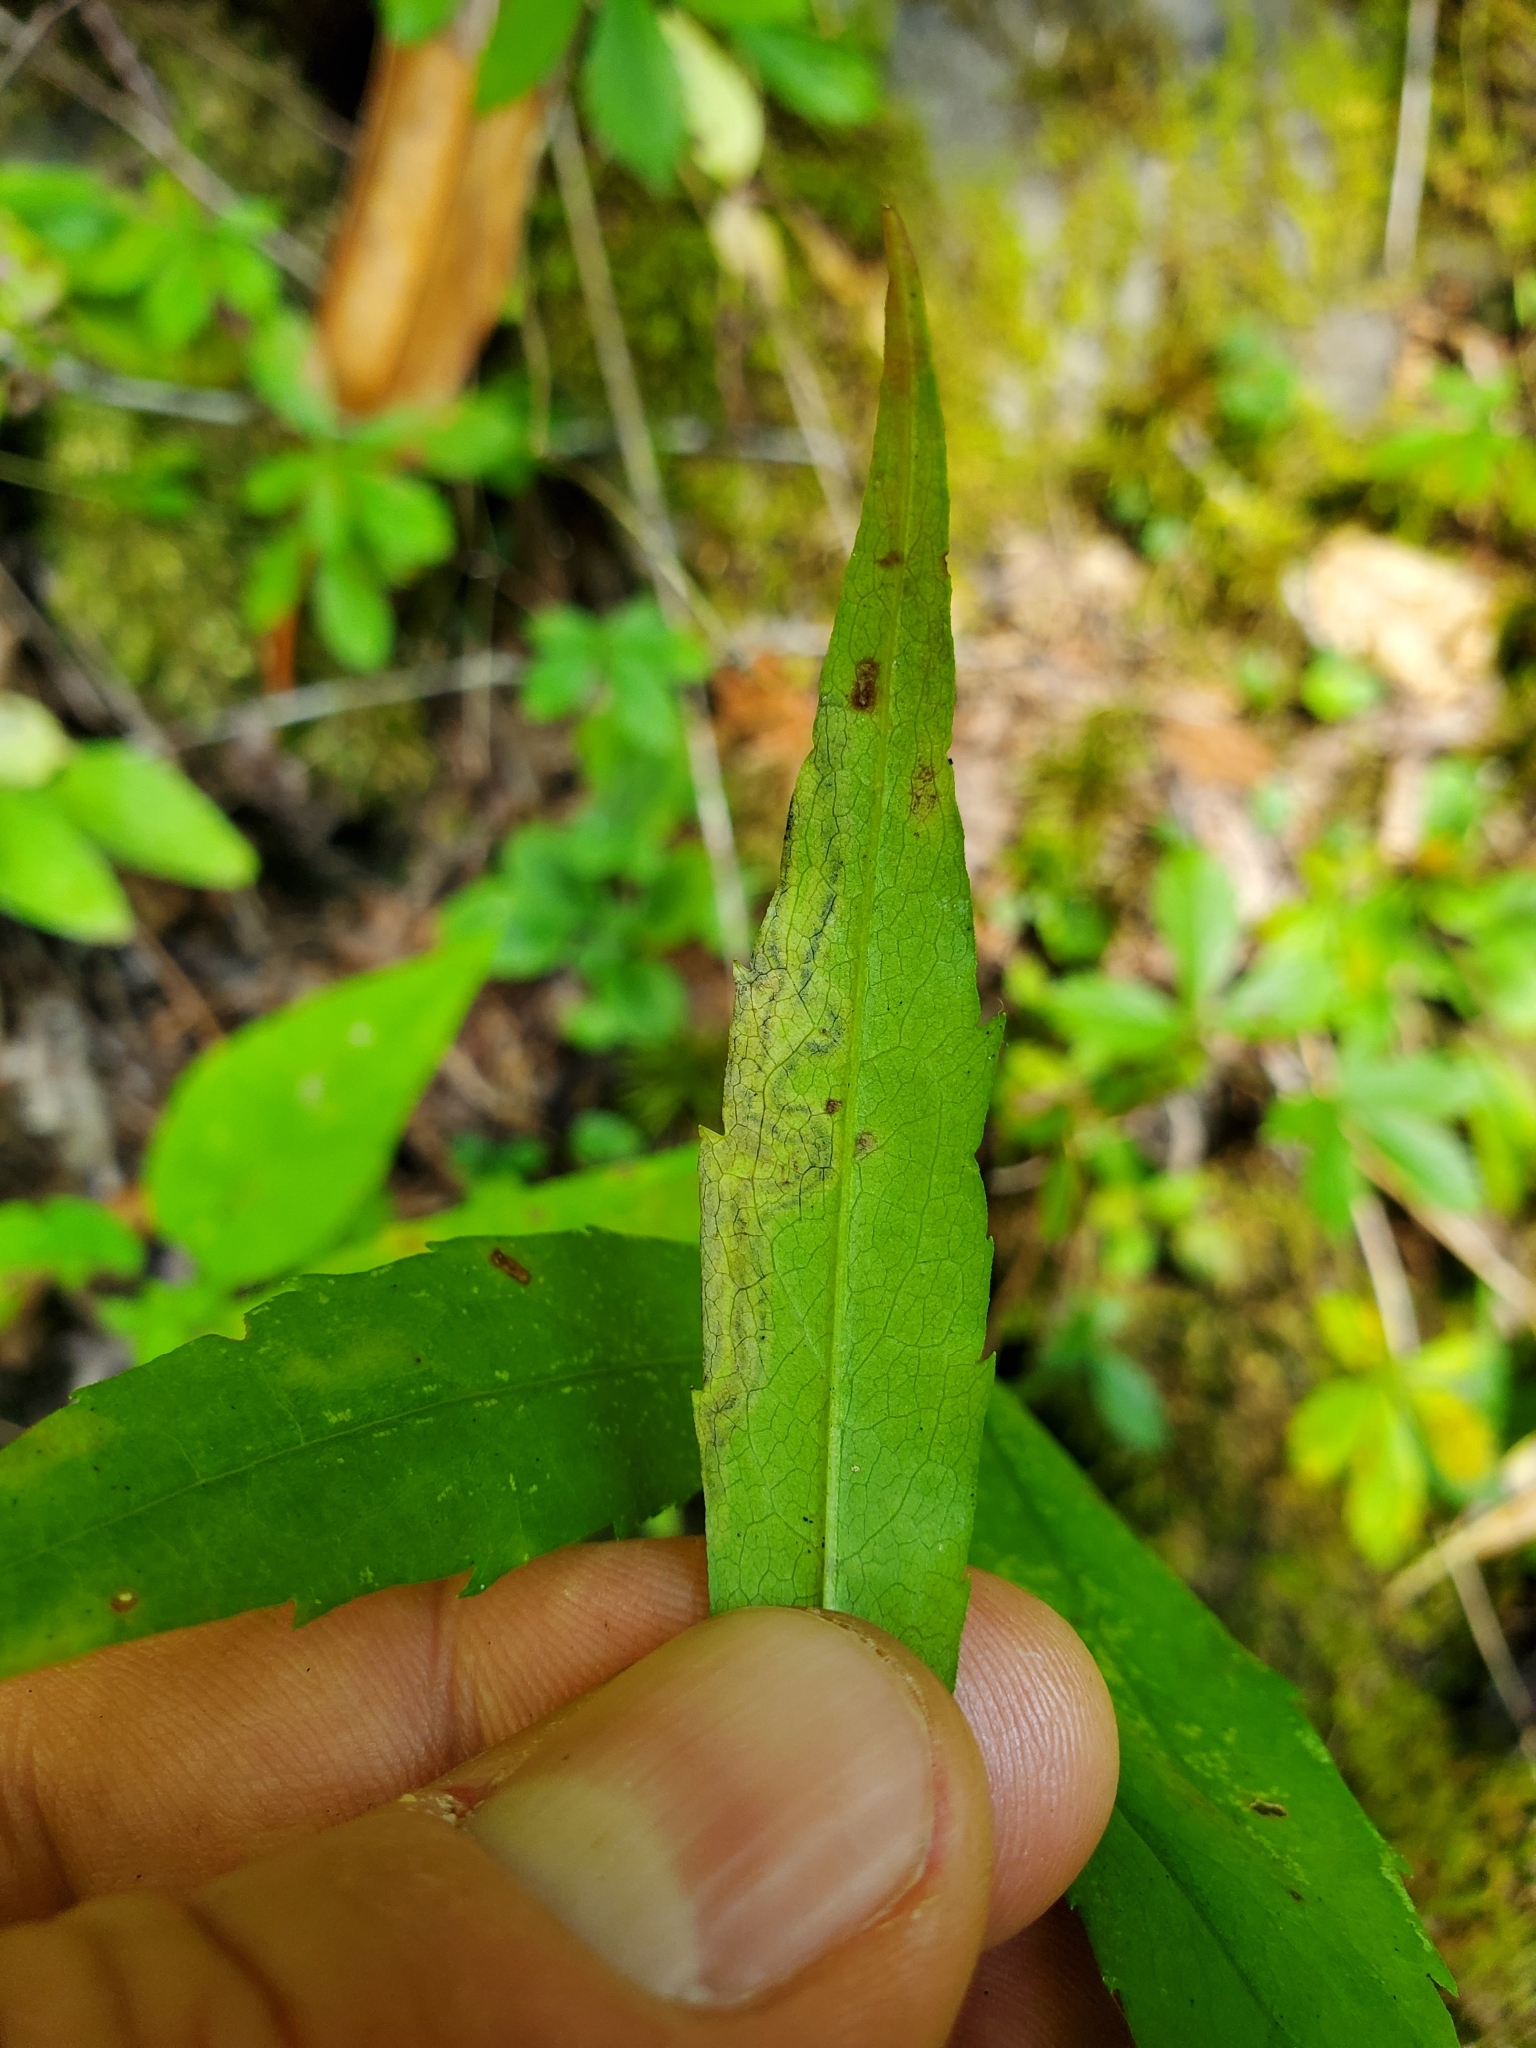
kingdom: Animalia
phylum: Arthropoda
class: Insecta
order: Diptera
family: Agromyzidae
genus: Liriomyza
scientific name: Liriomyza eupatorii
